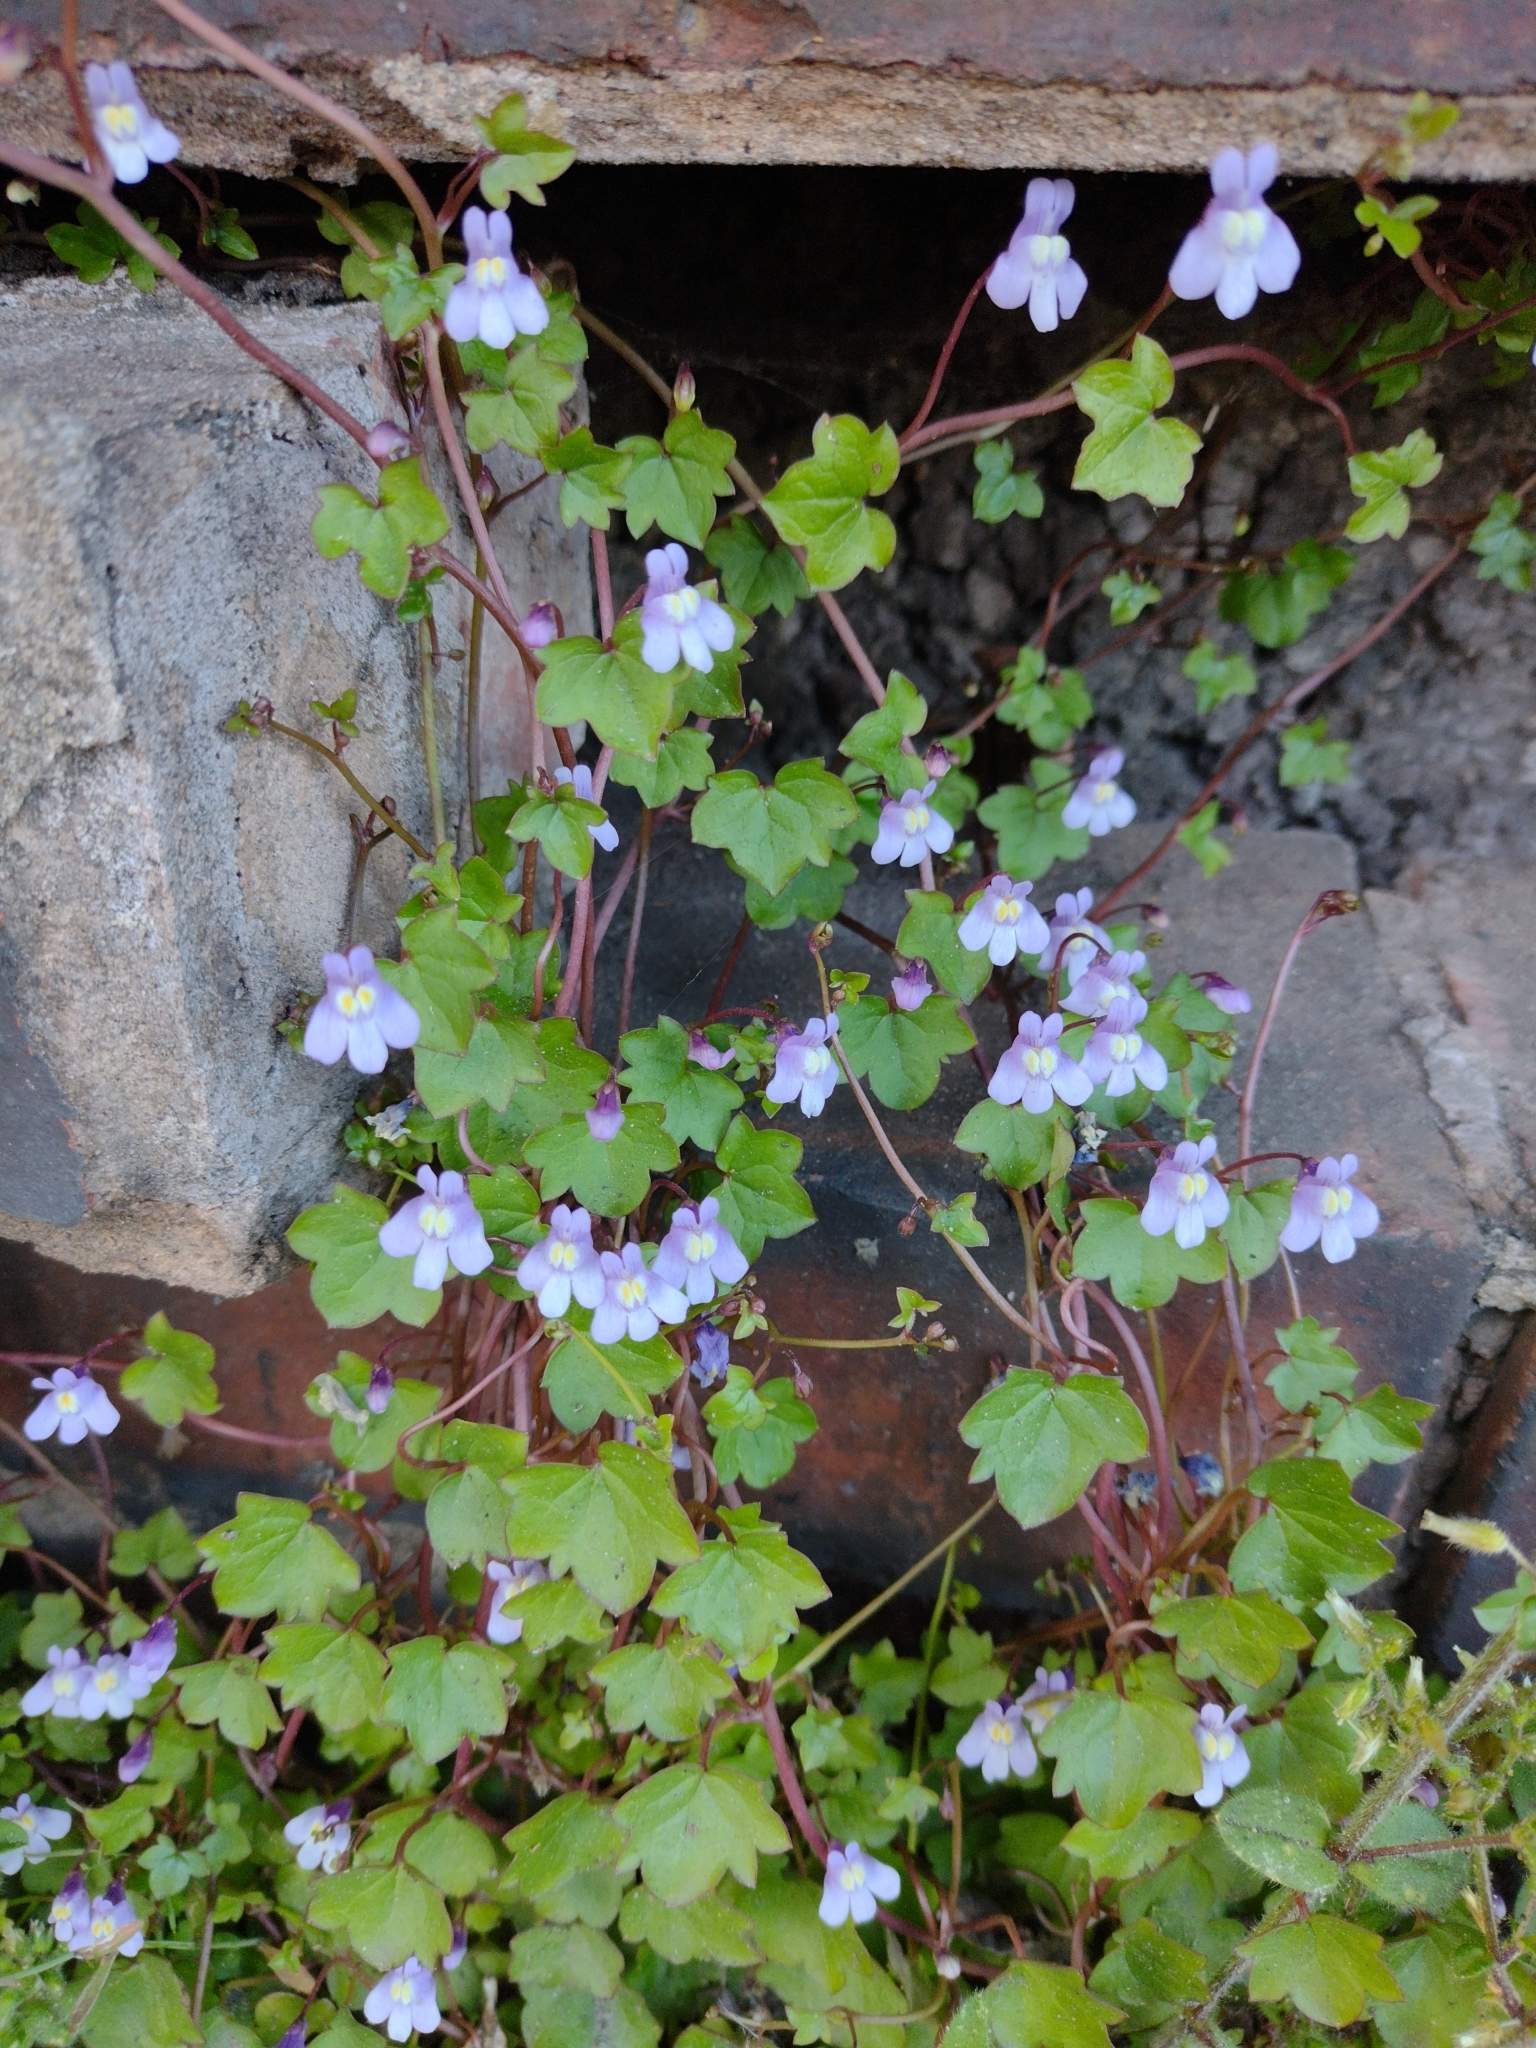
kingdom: Plantae
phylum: Tracheophyta
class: Magnoliopsida
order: Lamiales
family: Plantaginaceae
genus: Cymbalaria
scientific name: Cymbalaria muralis
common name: Ivy-leaved toadflax
